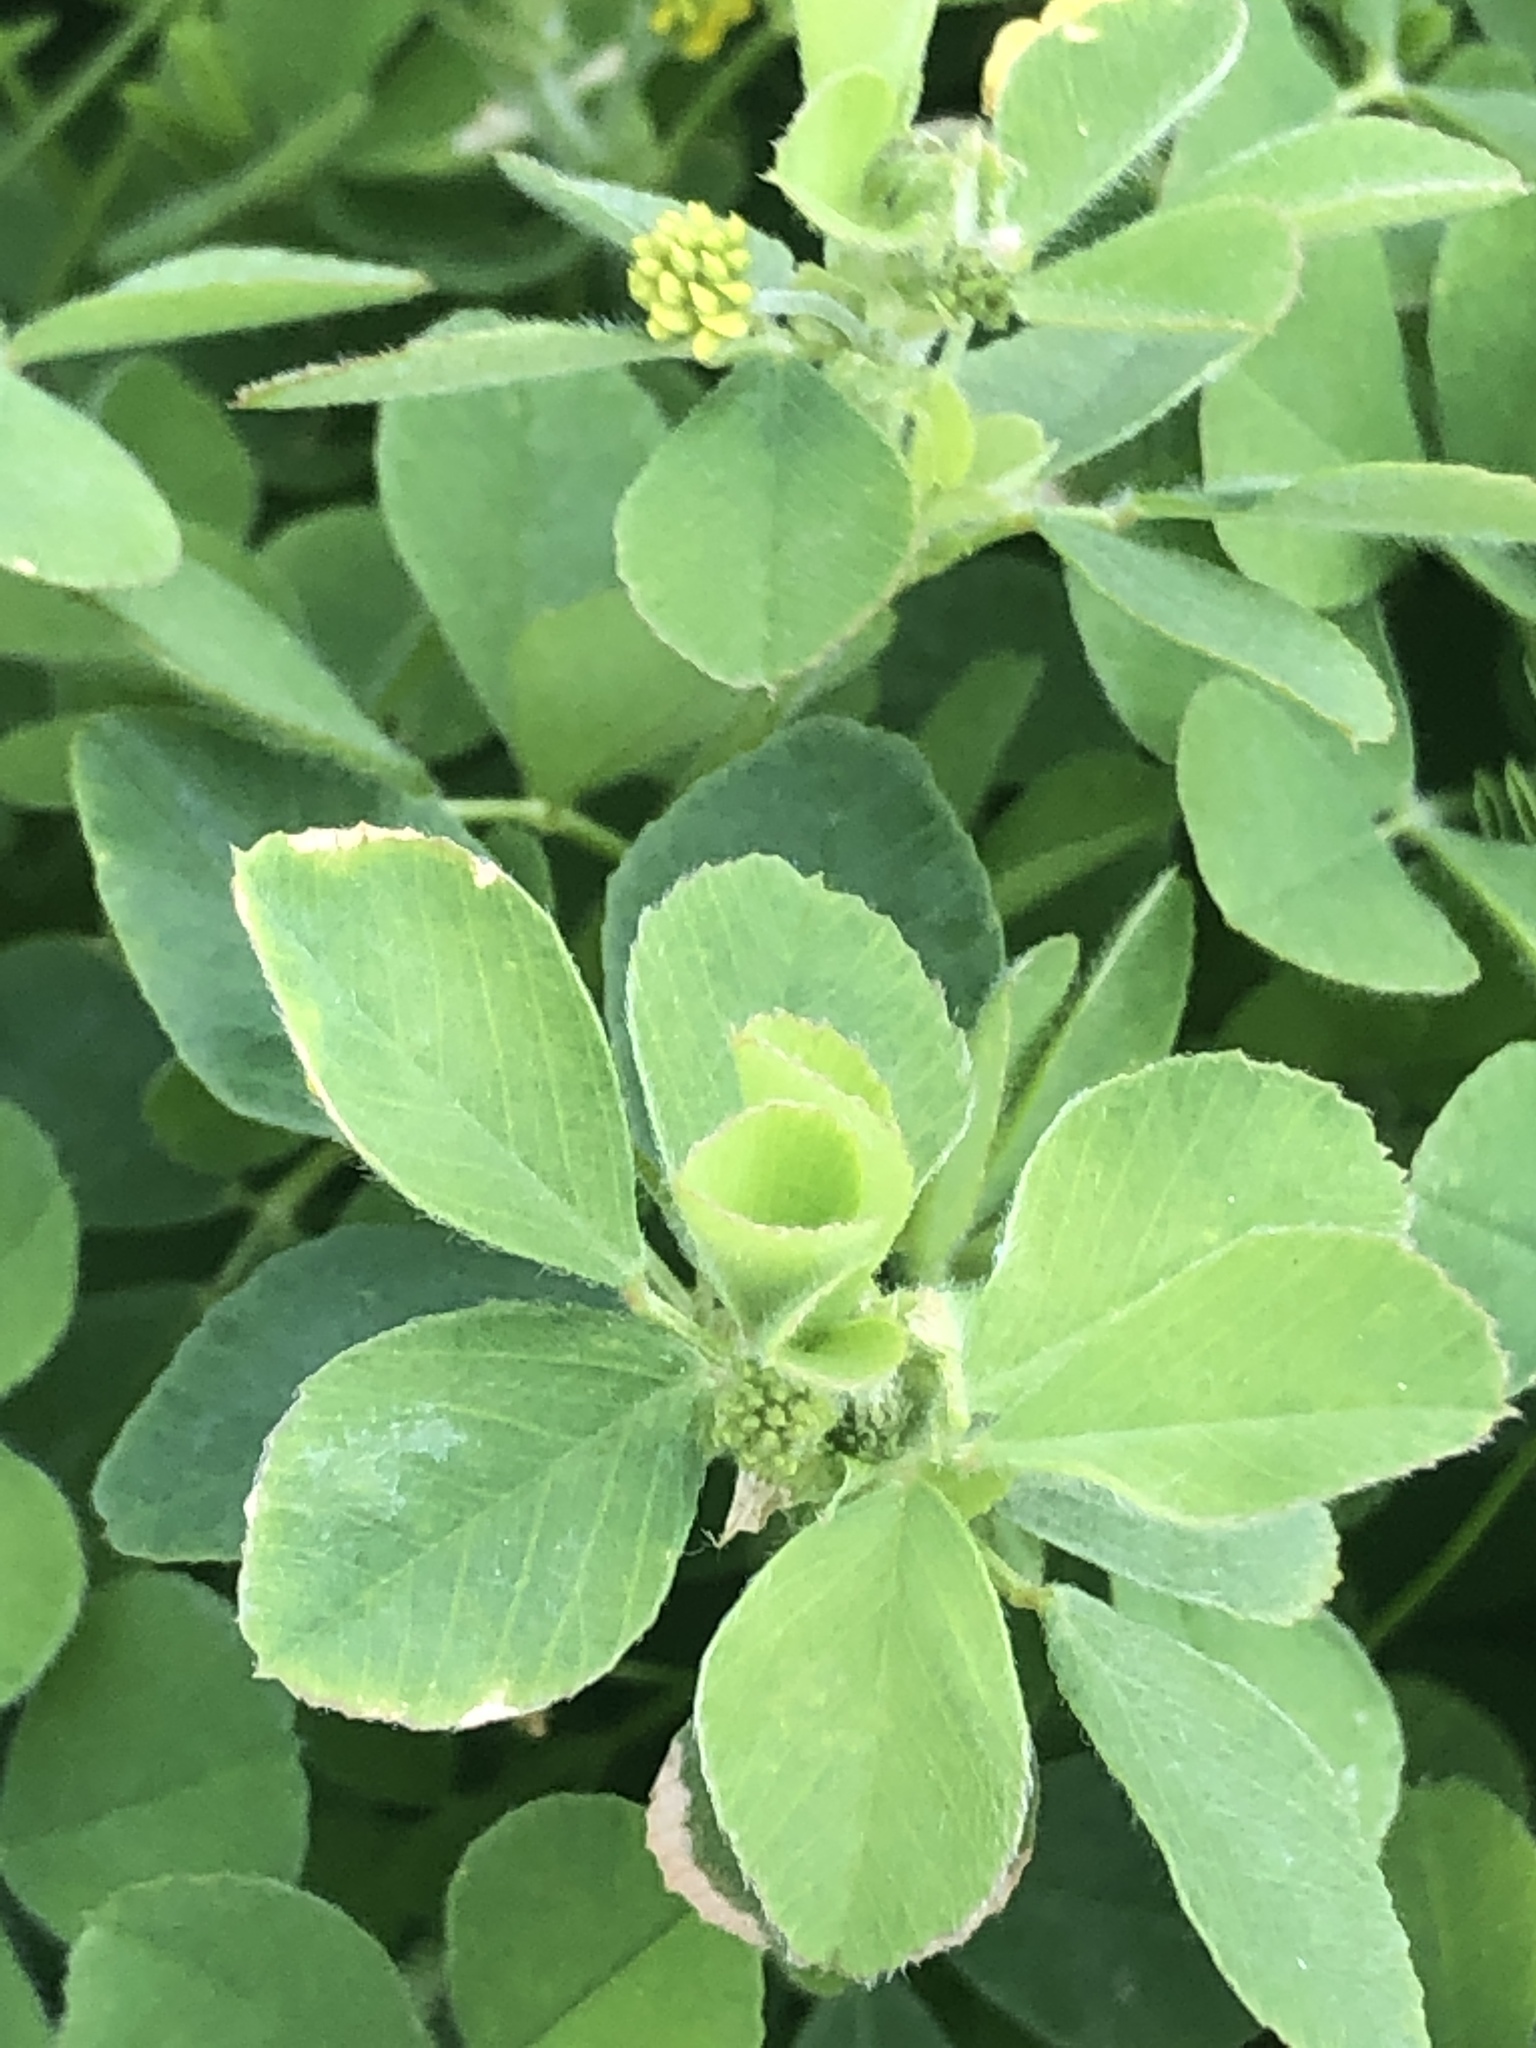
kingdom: Plantae
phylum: Tracheophyta
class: Magnoliopsida
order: Fabales
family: Fabaceae
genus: Medicago
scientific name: Medicago lupulina
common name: Black medick
